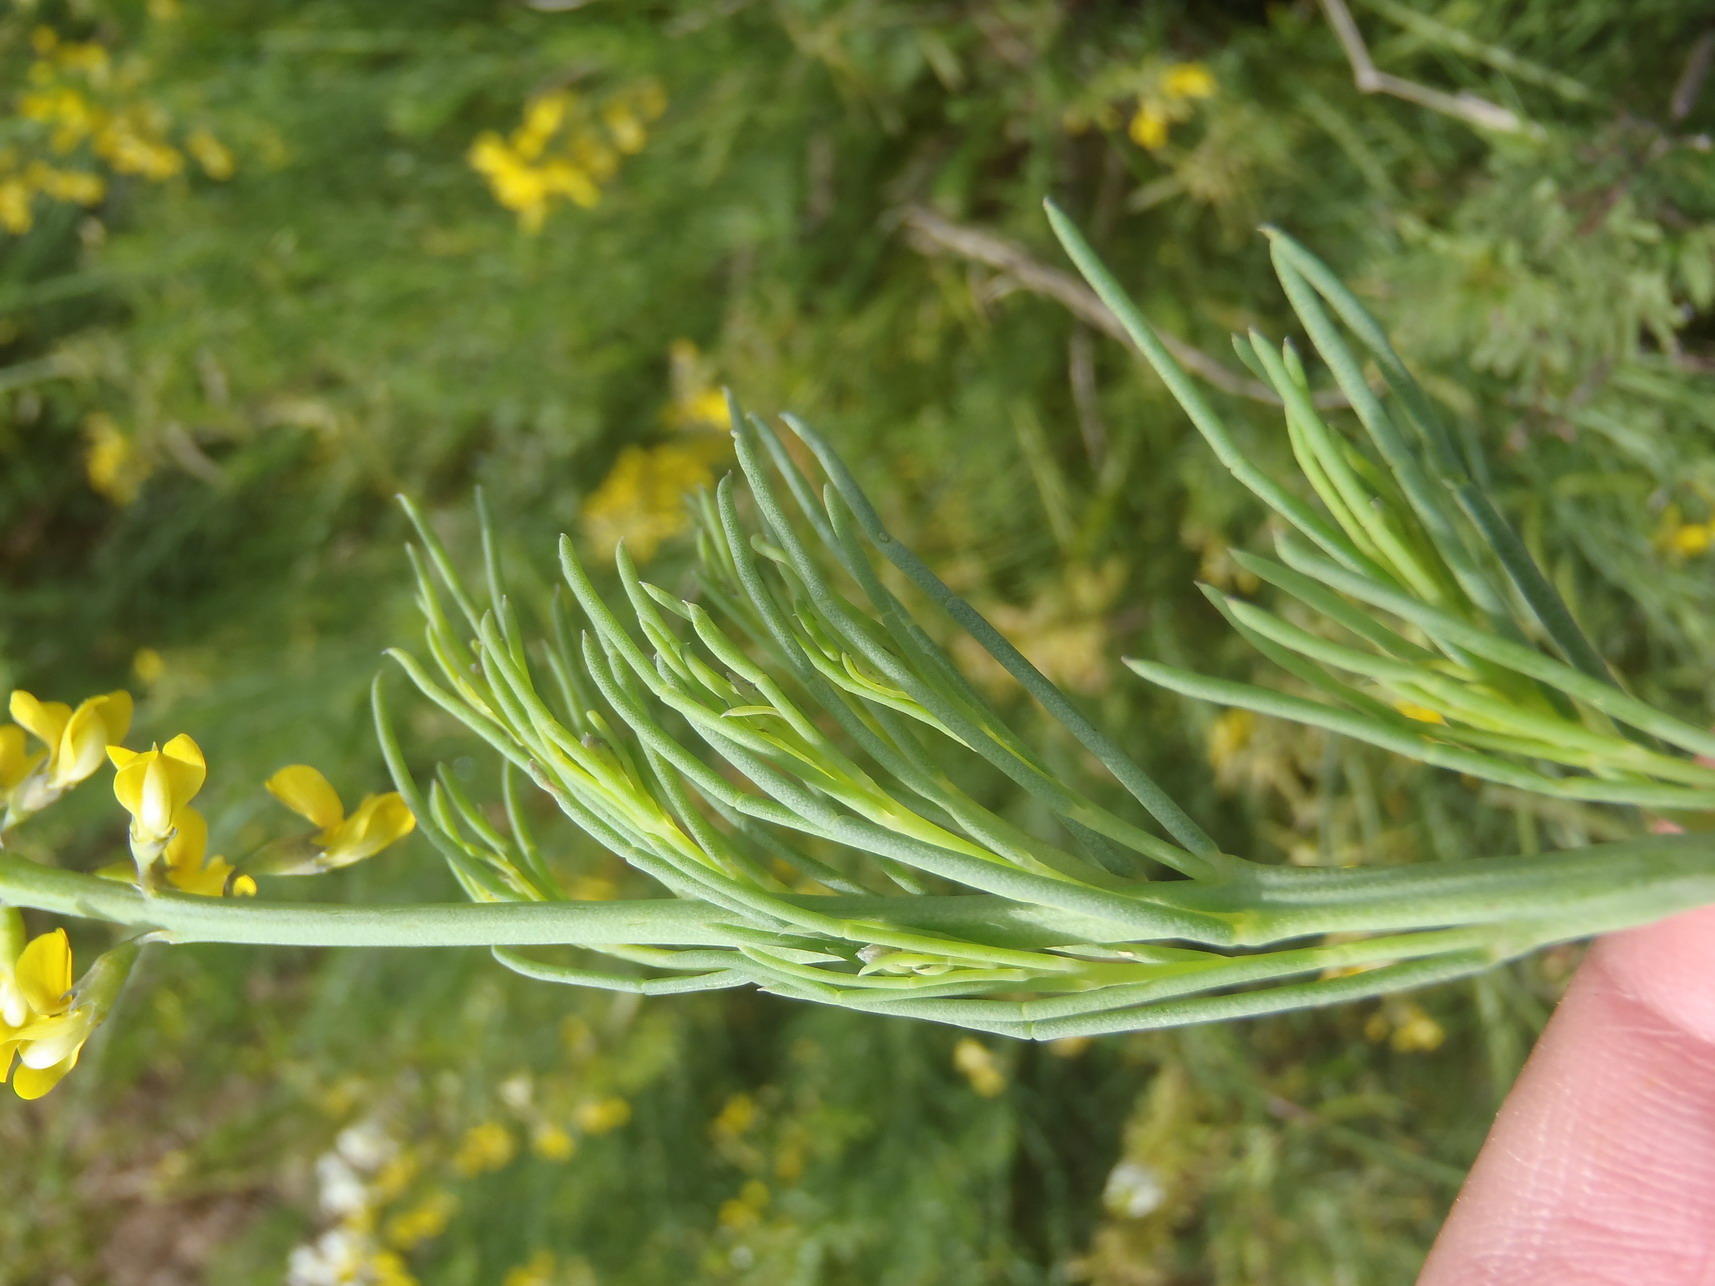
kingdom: Plantae
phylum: Tracheophyta
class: Magnoliopsida
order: Fabales
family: Fabaceae
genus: Lebeckia
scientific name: Lebeckia gracilis
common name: Slender ganna
